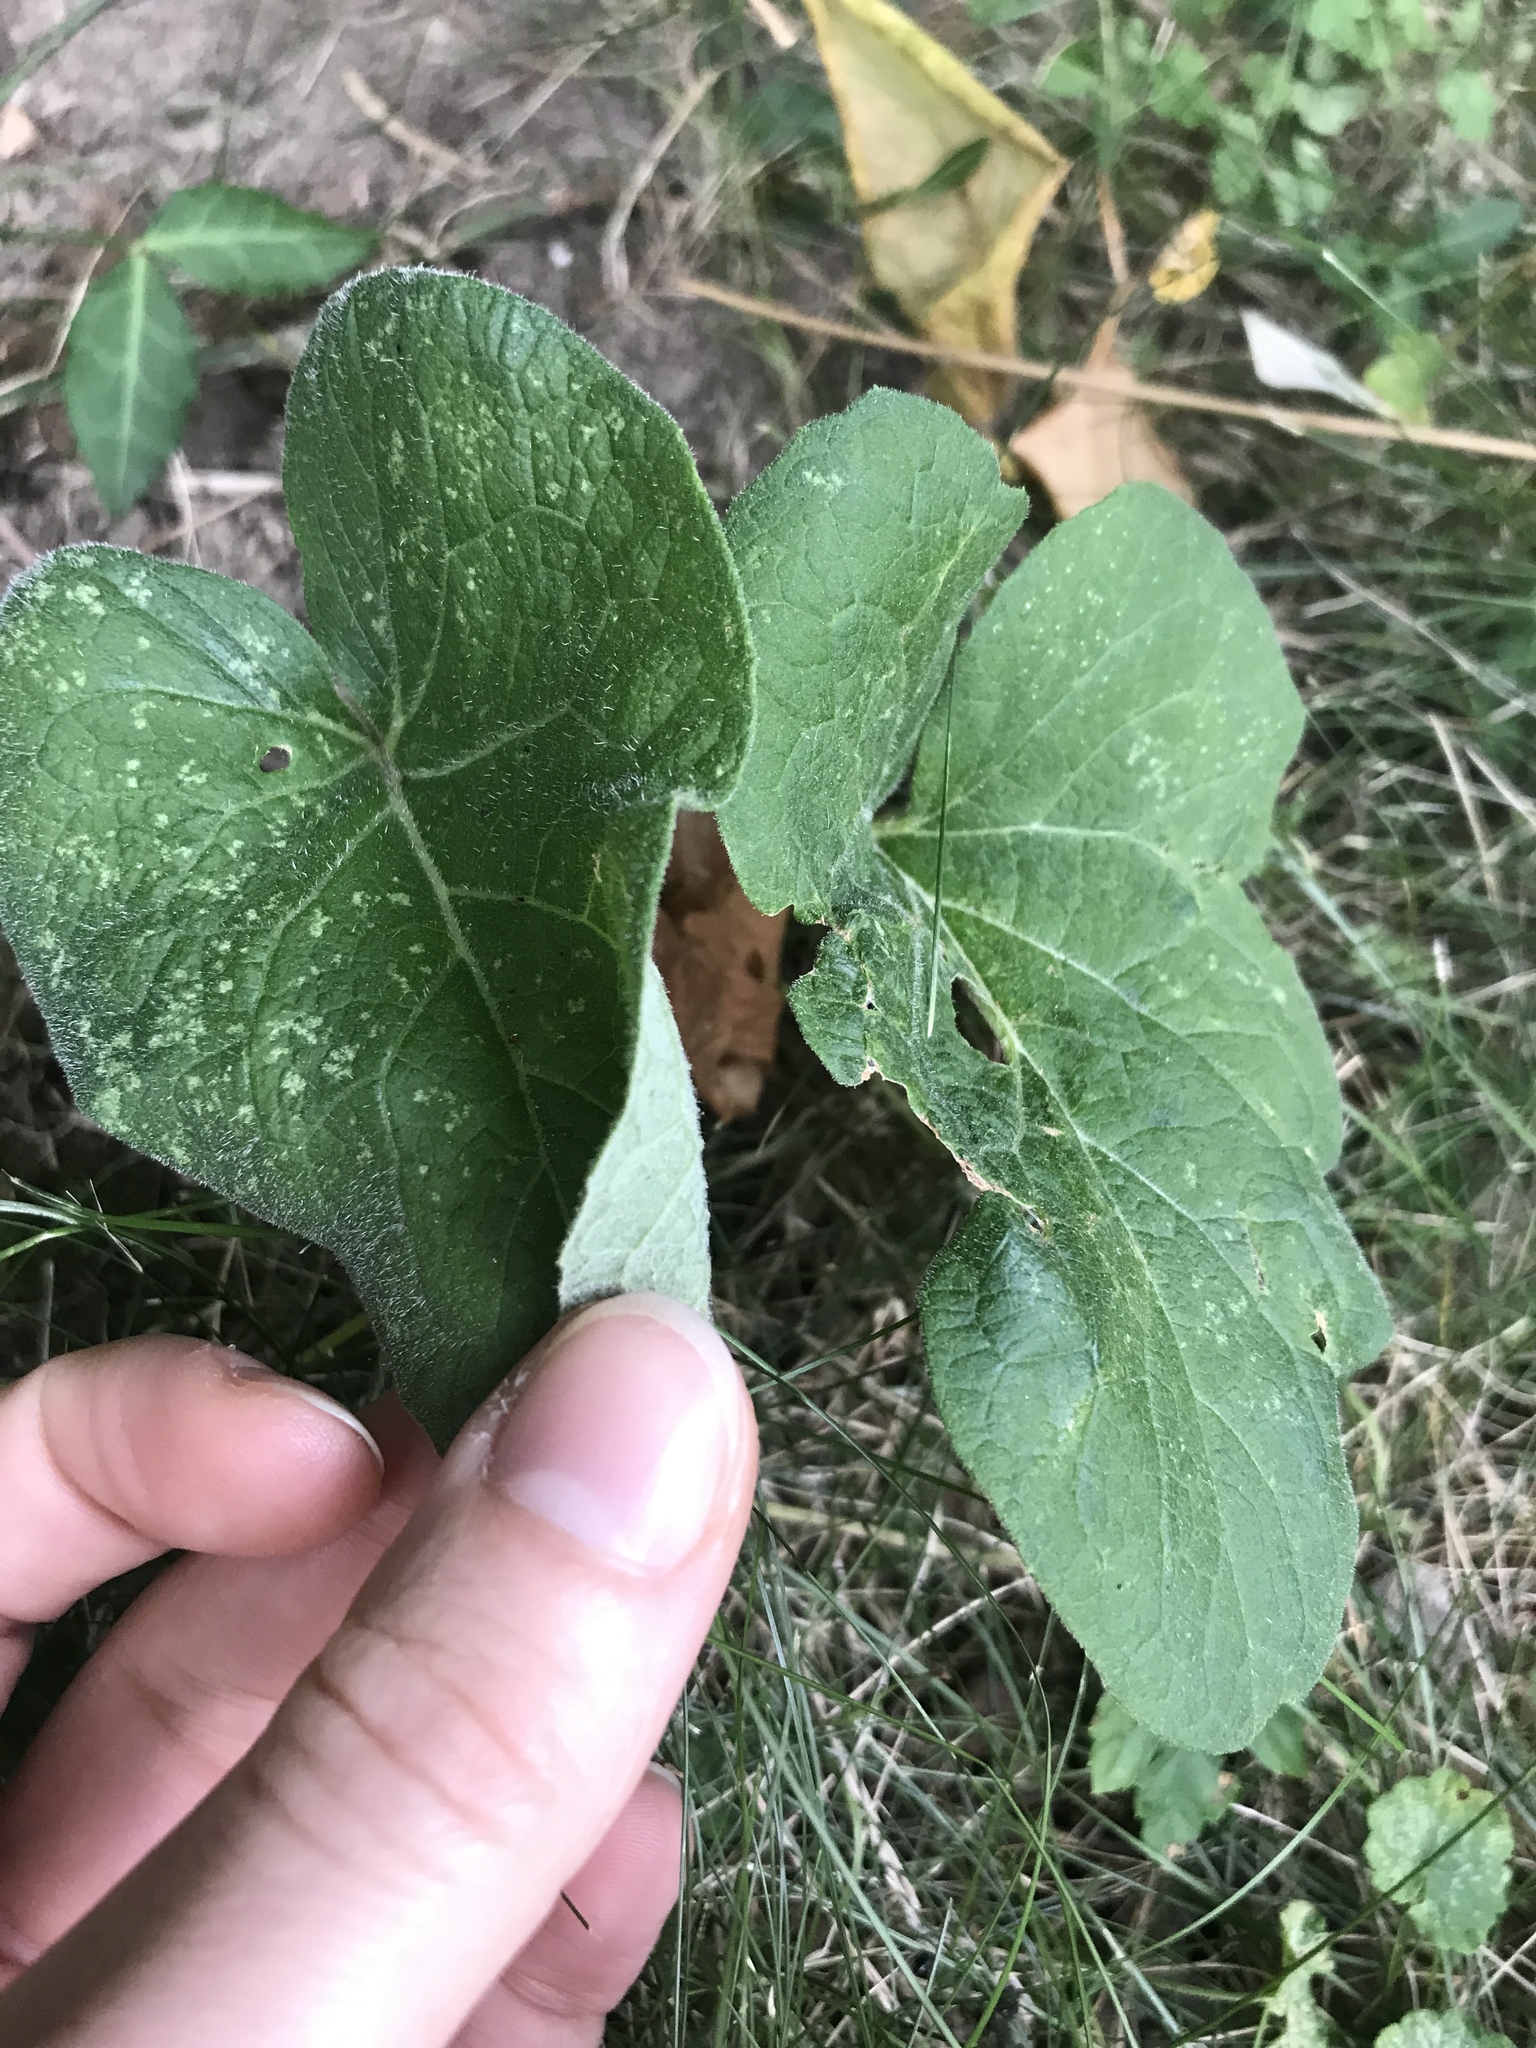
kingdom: Plantae
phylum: Tracheophyta
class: Magnoliopsida
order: Piperales
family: Aristolochiaceae
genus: Asarum
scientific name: Asarum canadense
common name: Wild ginger
